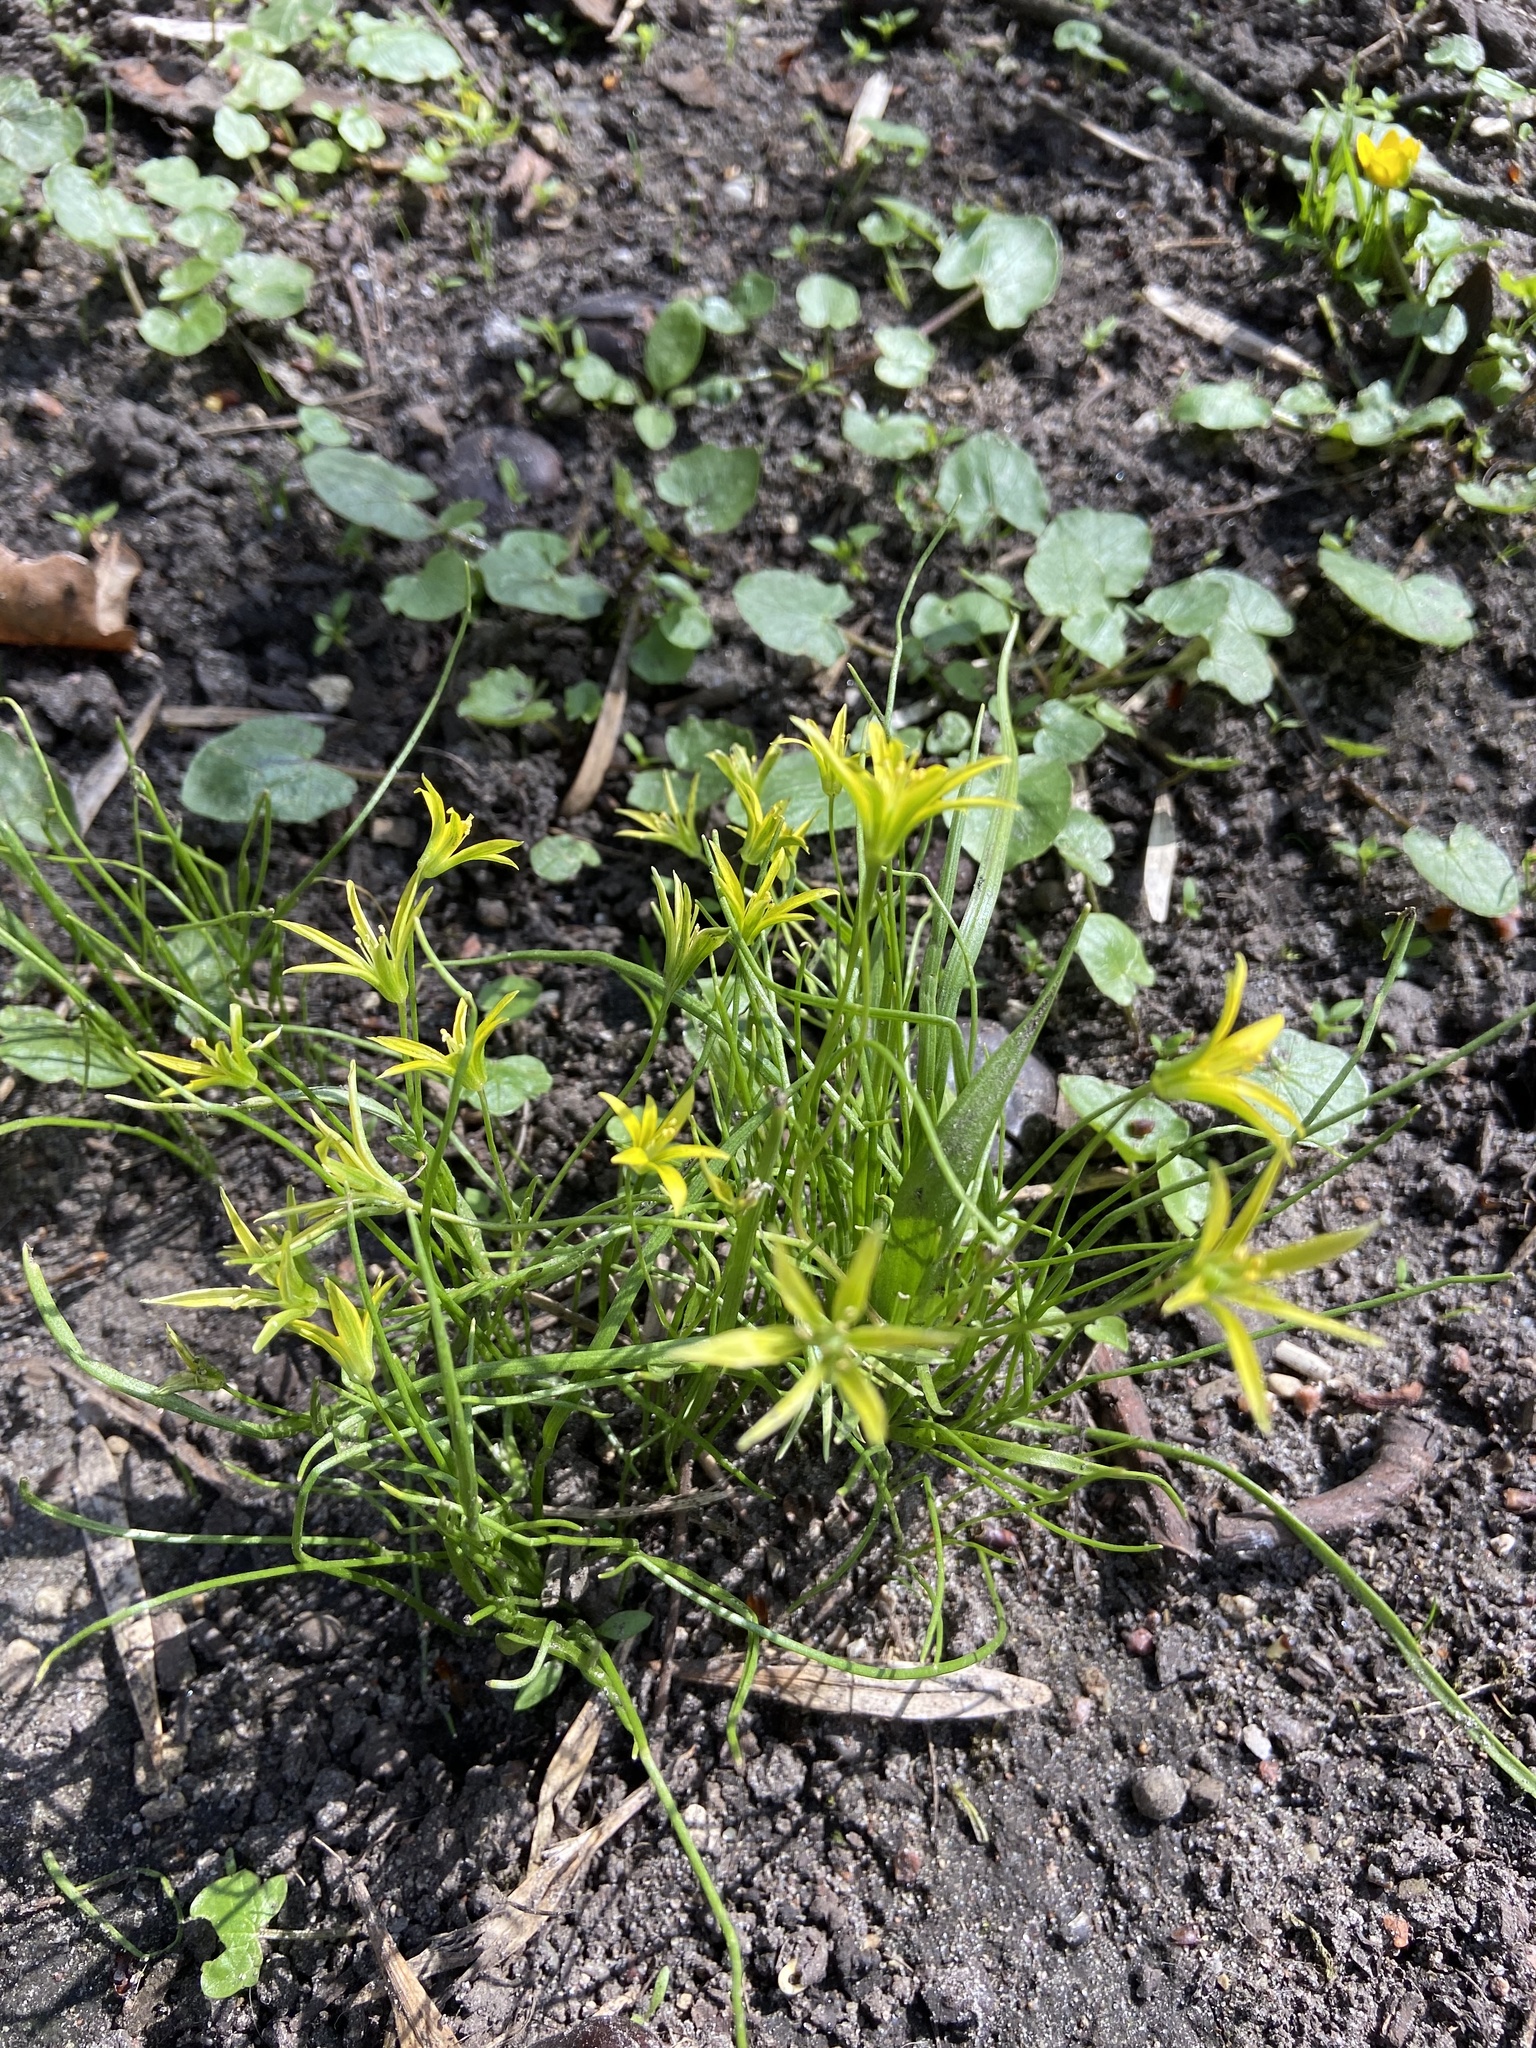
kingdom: Plantae
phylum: Tracheophyta
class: Liliopsida
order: Liliales
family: Liliaceae
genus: Gagea
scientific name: Gagea minima
